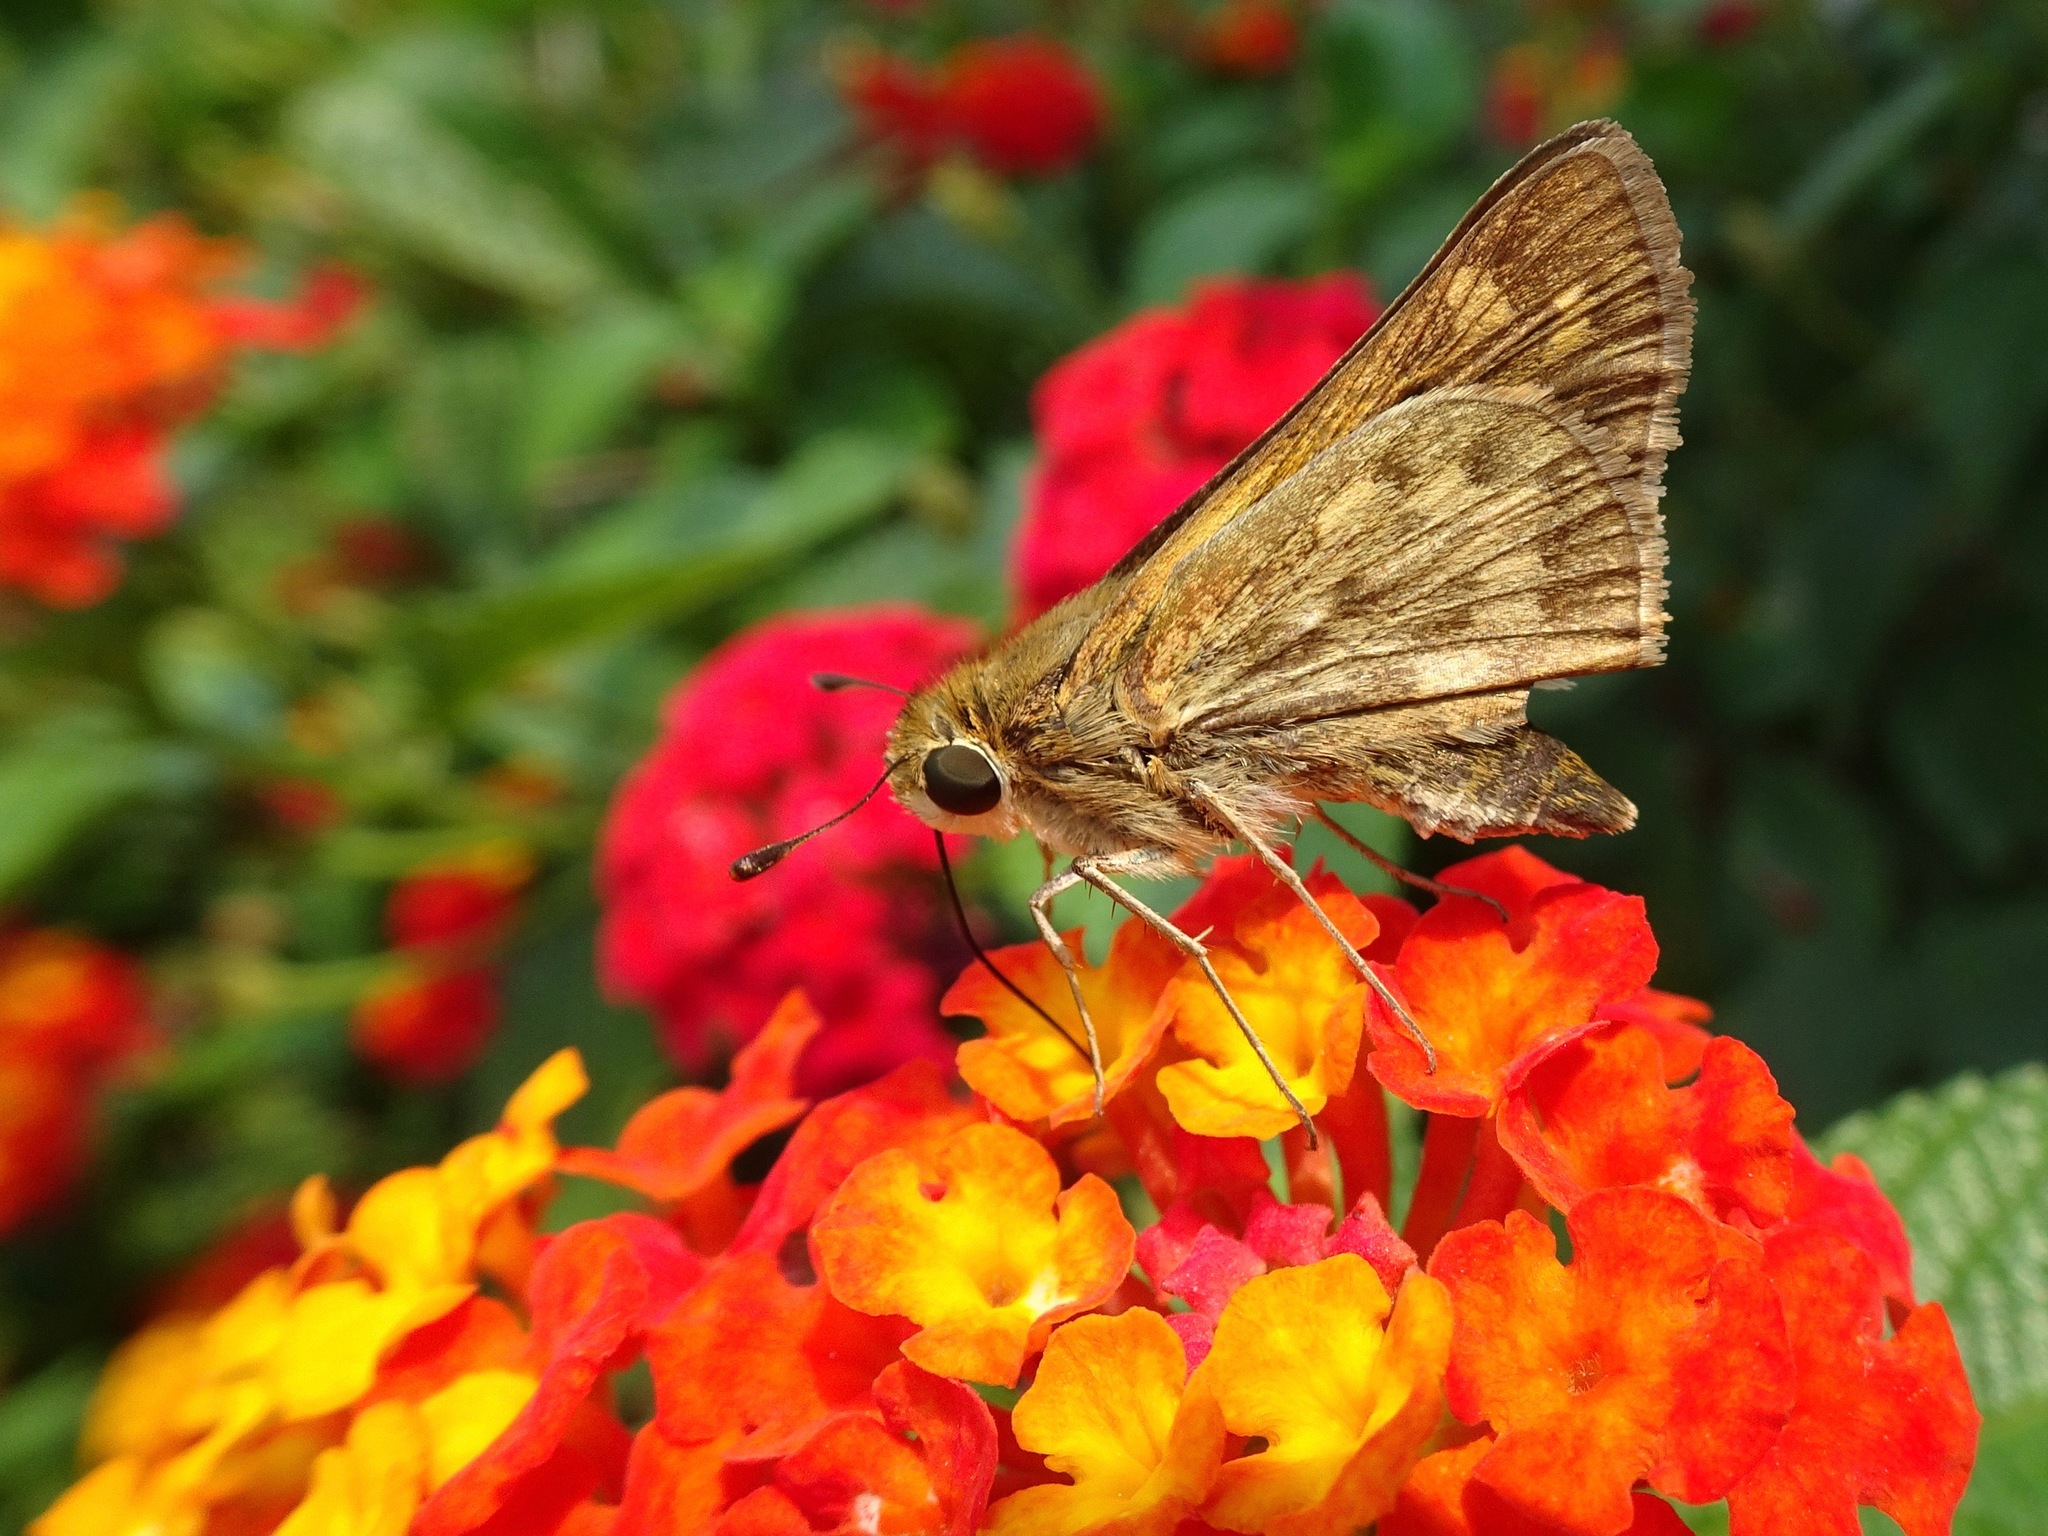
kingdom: Animalia
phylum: Arthropoda
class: Insecta
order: Lepidoptera
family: Hesperiidae
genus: Hylephila
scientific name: Hylephila phyleus
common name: Fiery skipper
